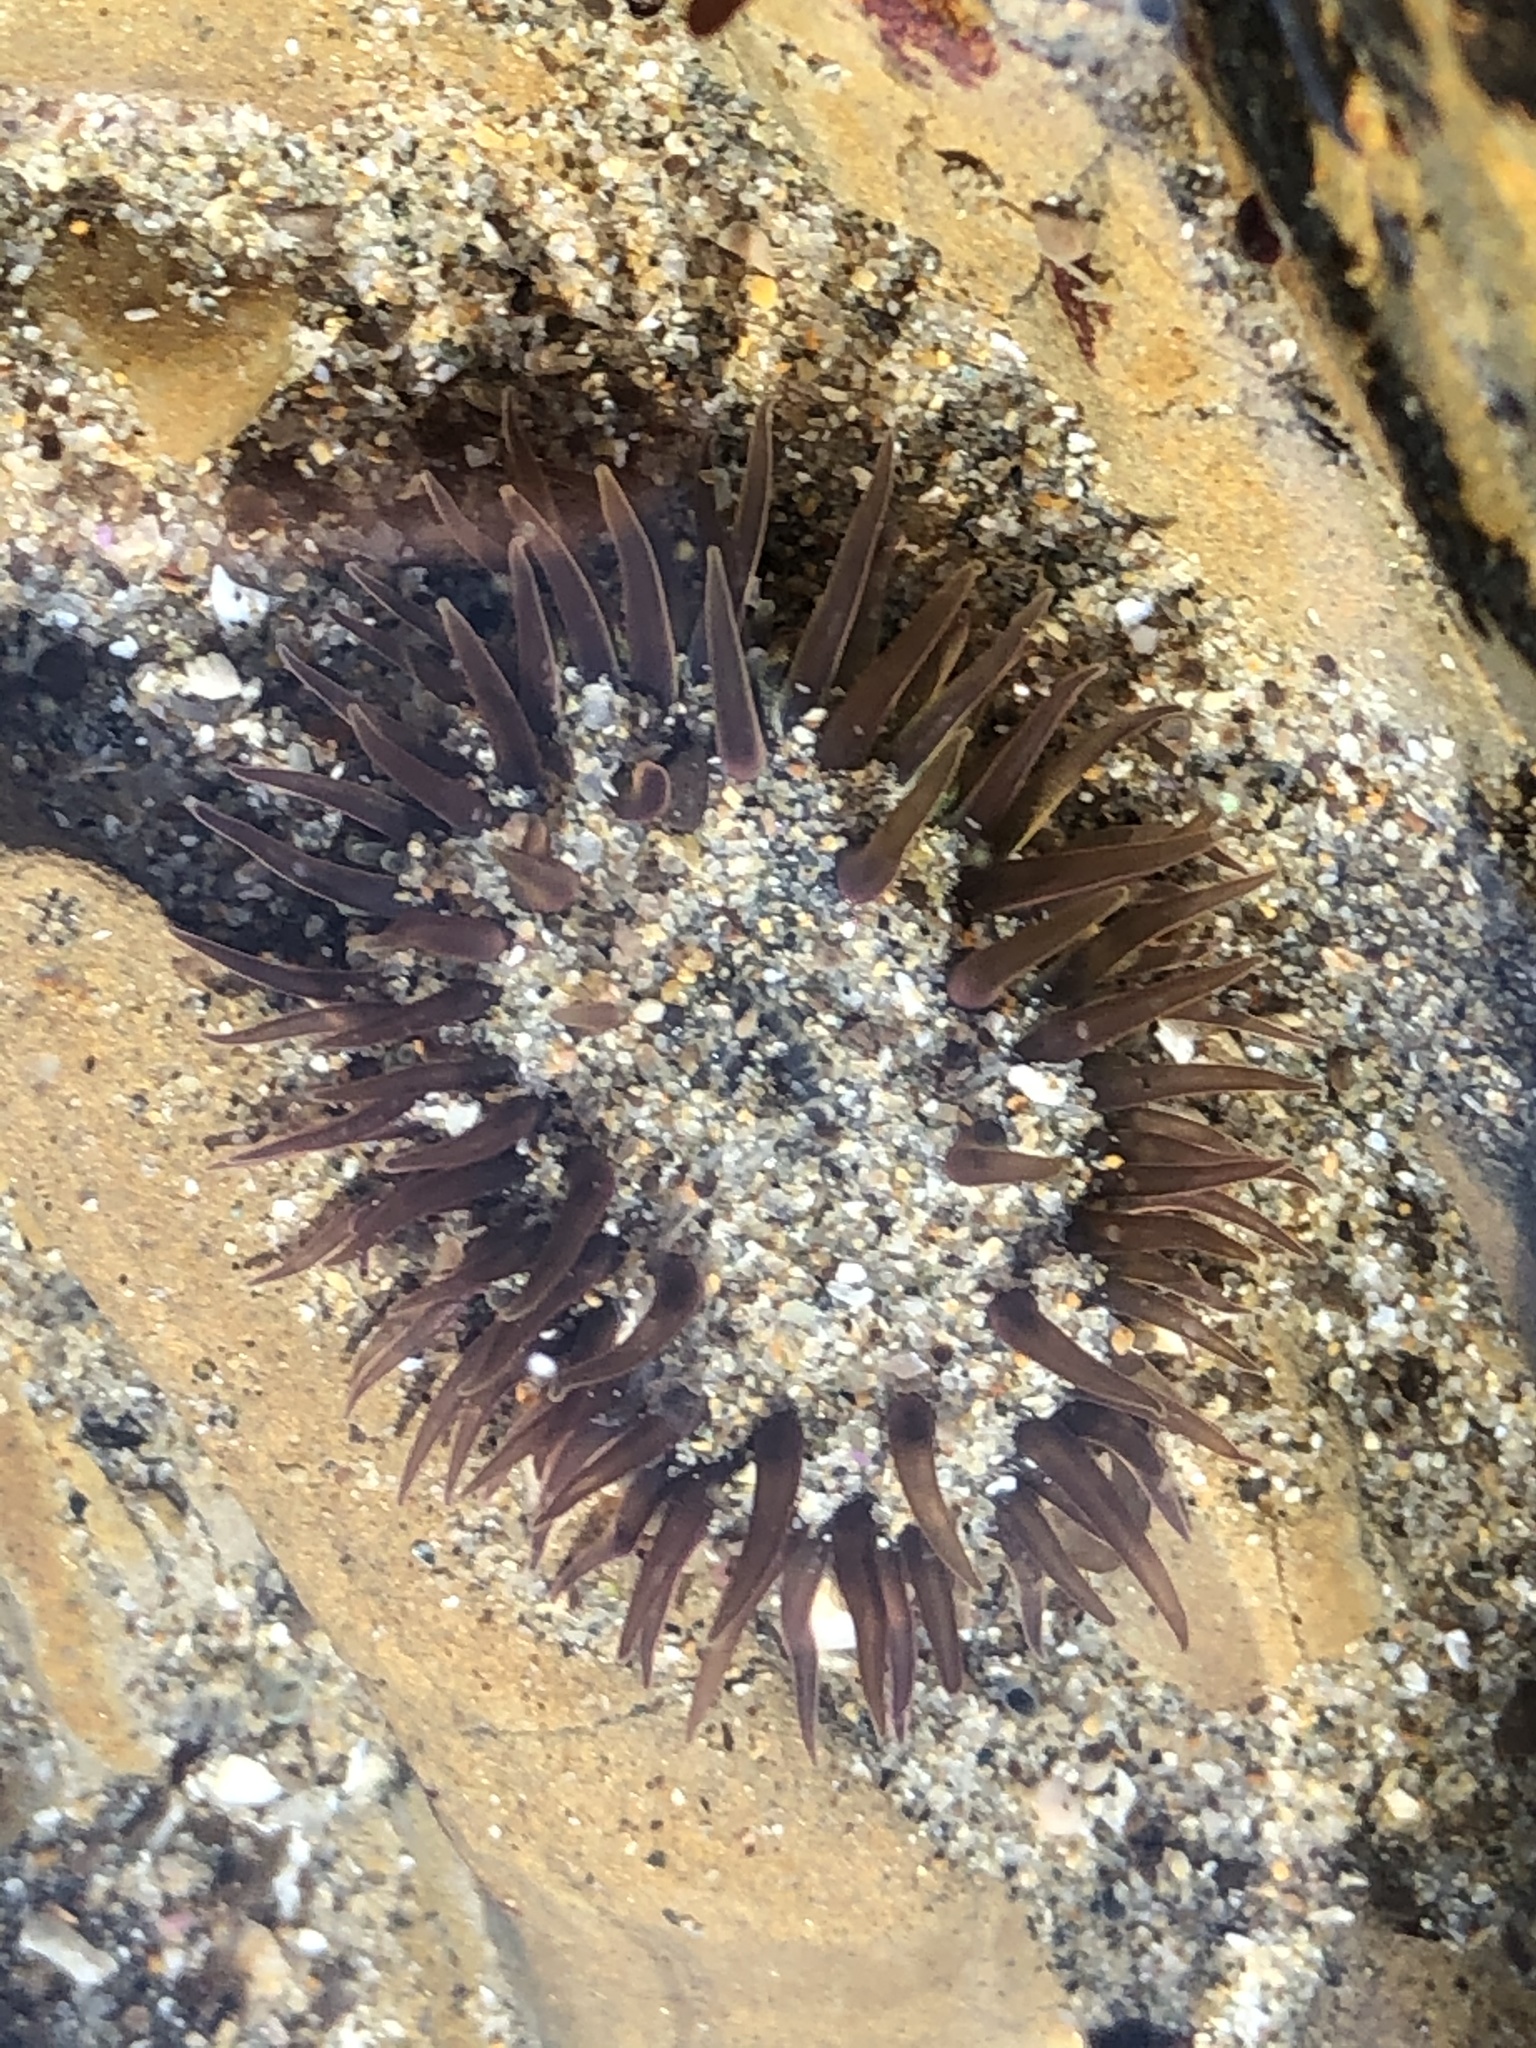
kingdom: Animalia
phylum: Cnidaria
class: Anthozoa
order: Actiniaria
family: Actiniidae
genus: Anthopleura
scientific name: Anthopleura artemisia
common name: Buried sea anemone
